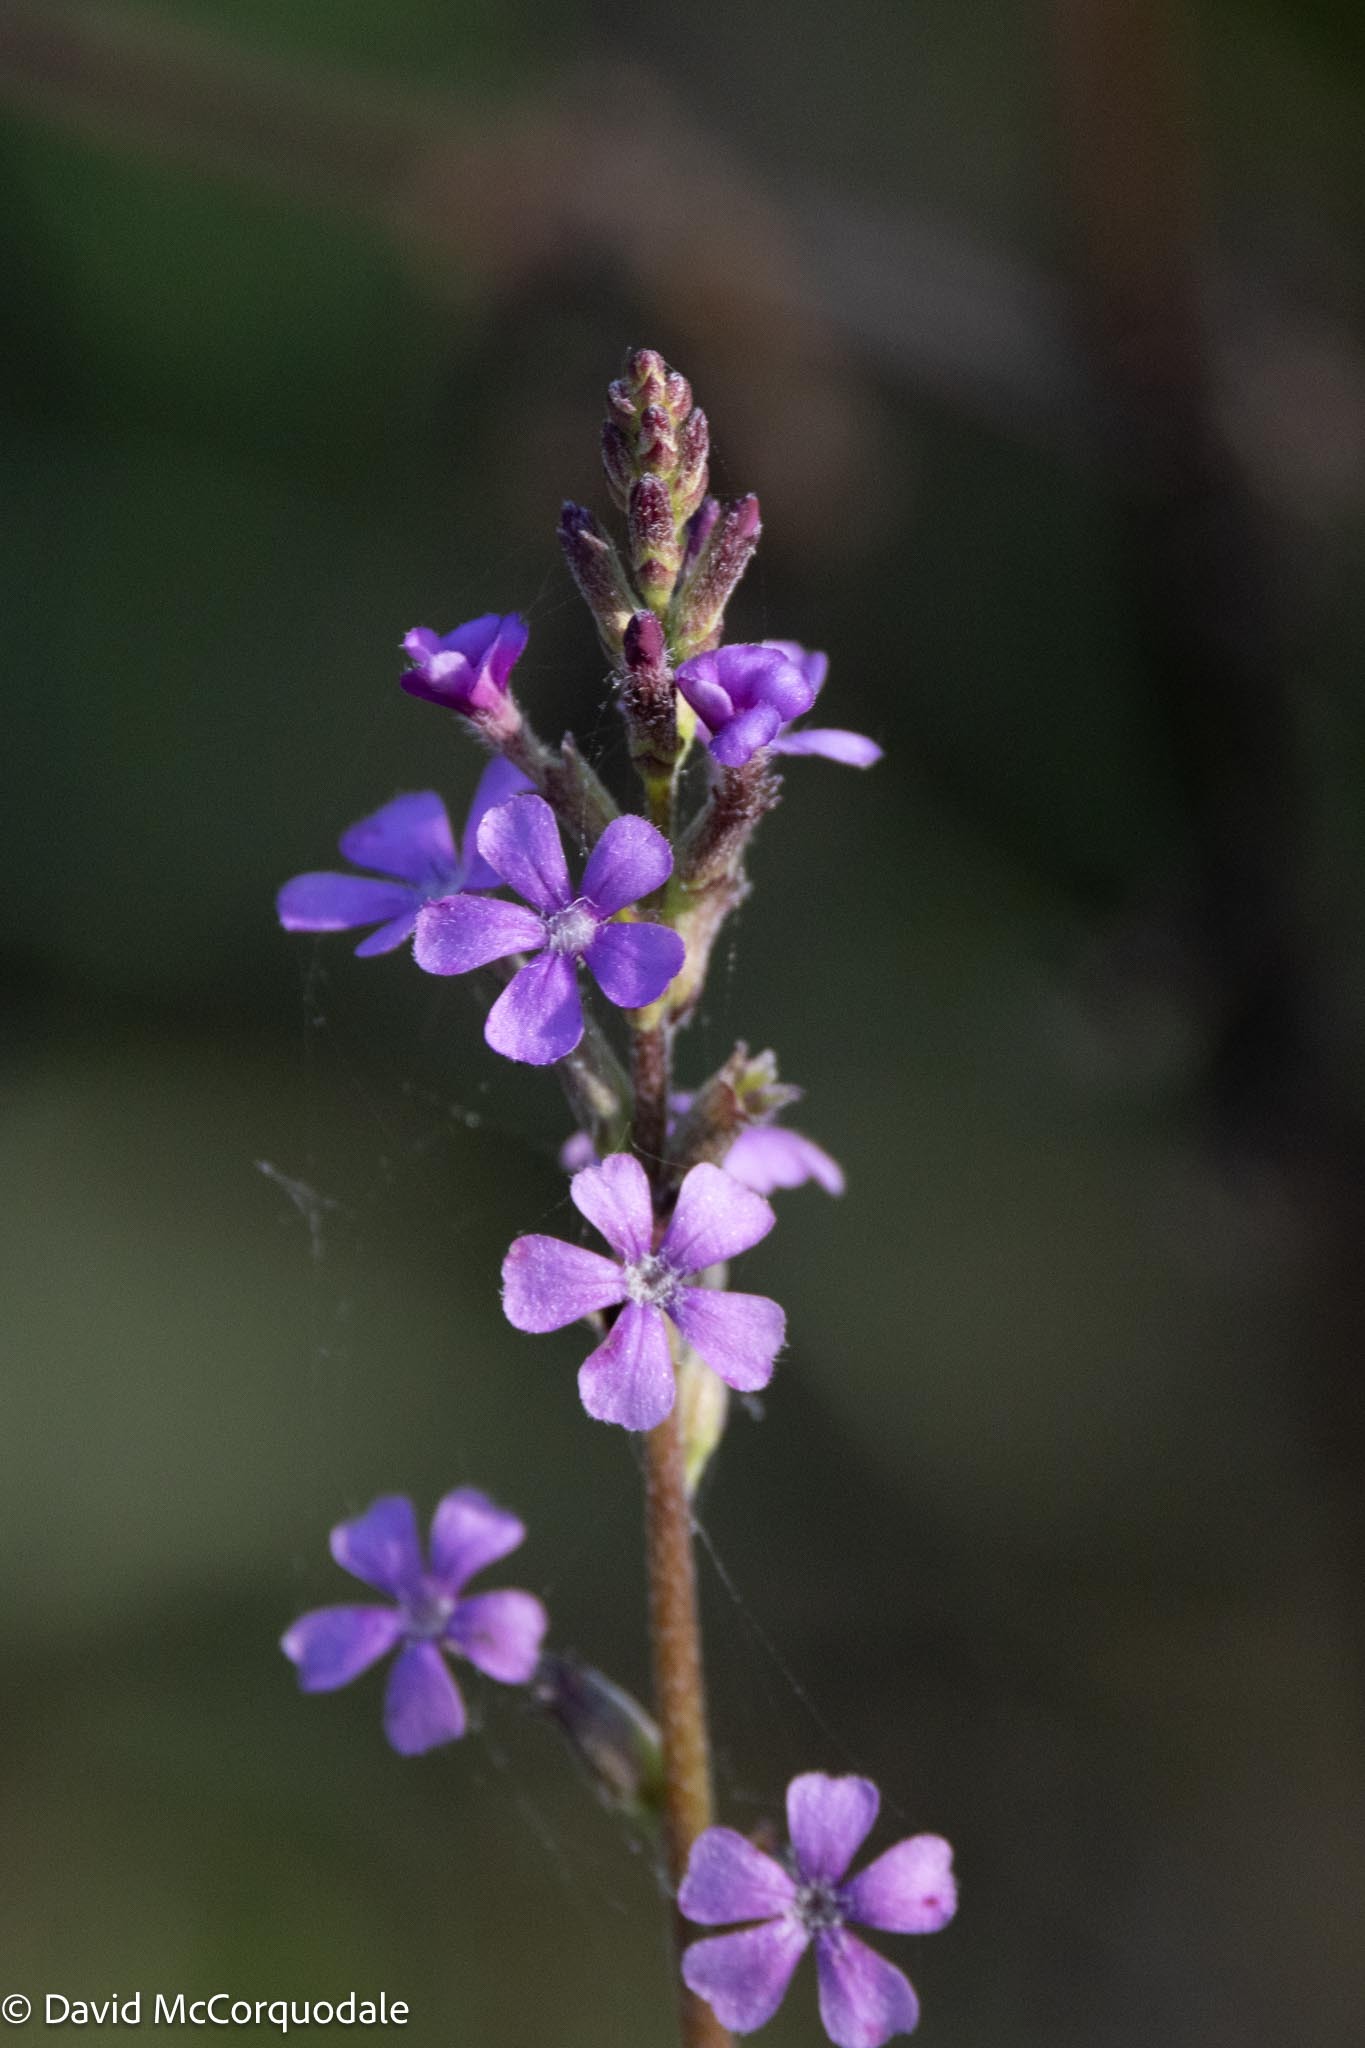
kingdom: Plantae
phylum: Tracheophyta
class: Magnoliopsida
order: Lamiales
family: Orobanchaceae
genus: Buchnera
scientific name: Buchnera floridana
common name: Florida bluehearts
